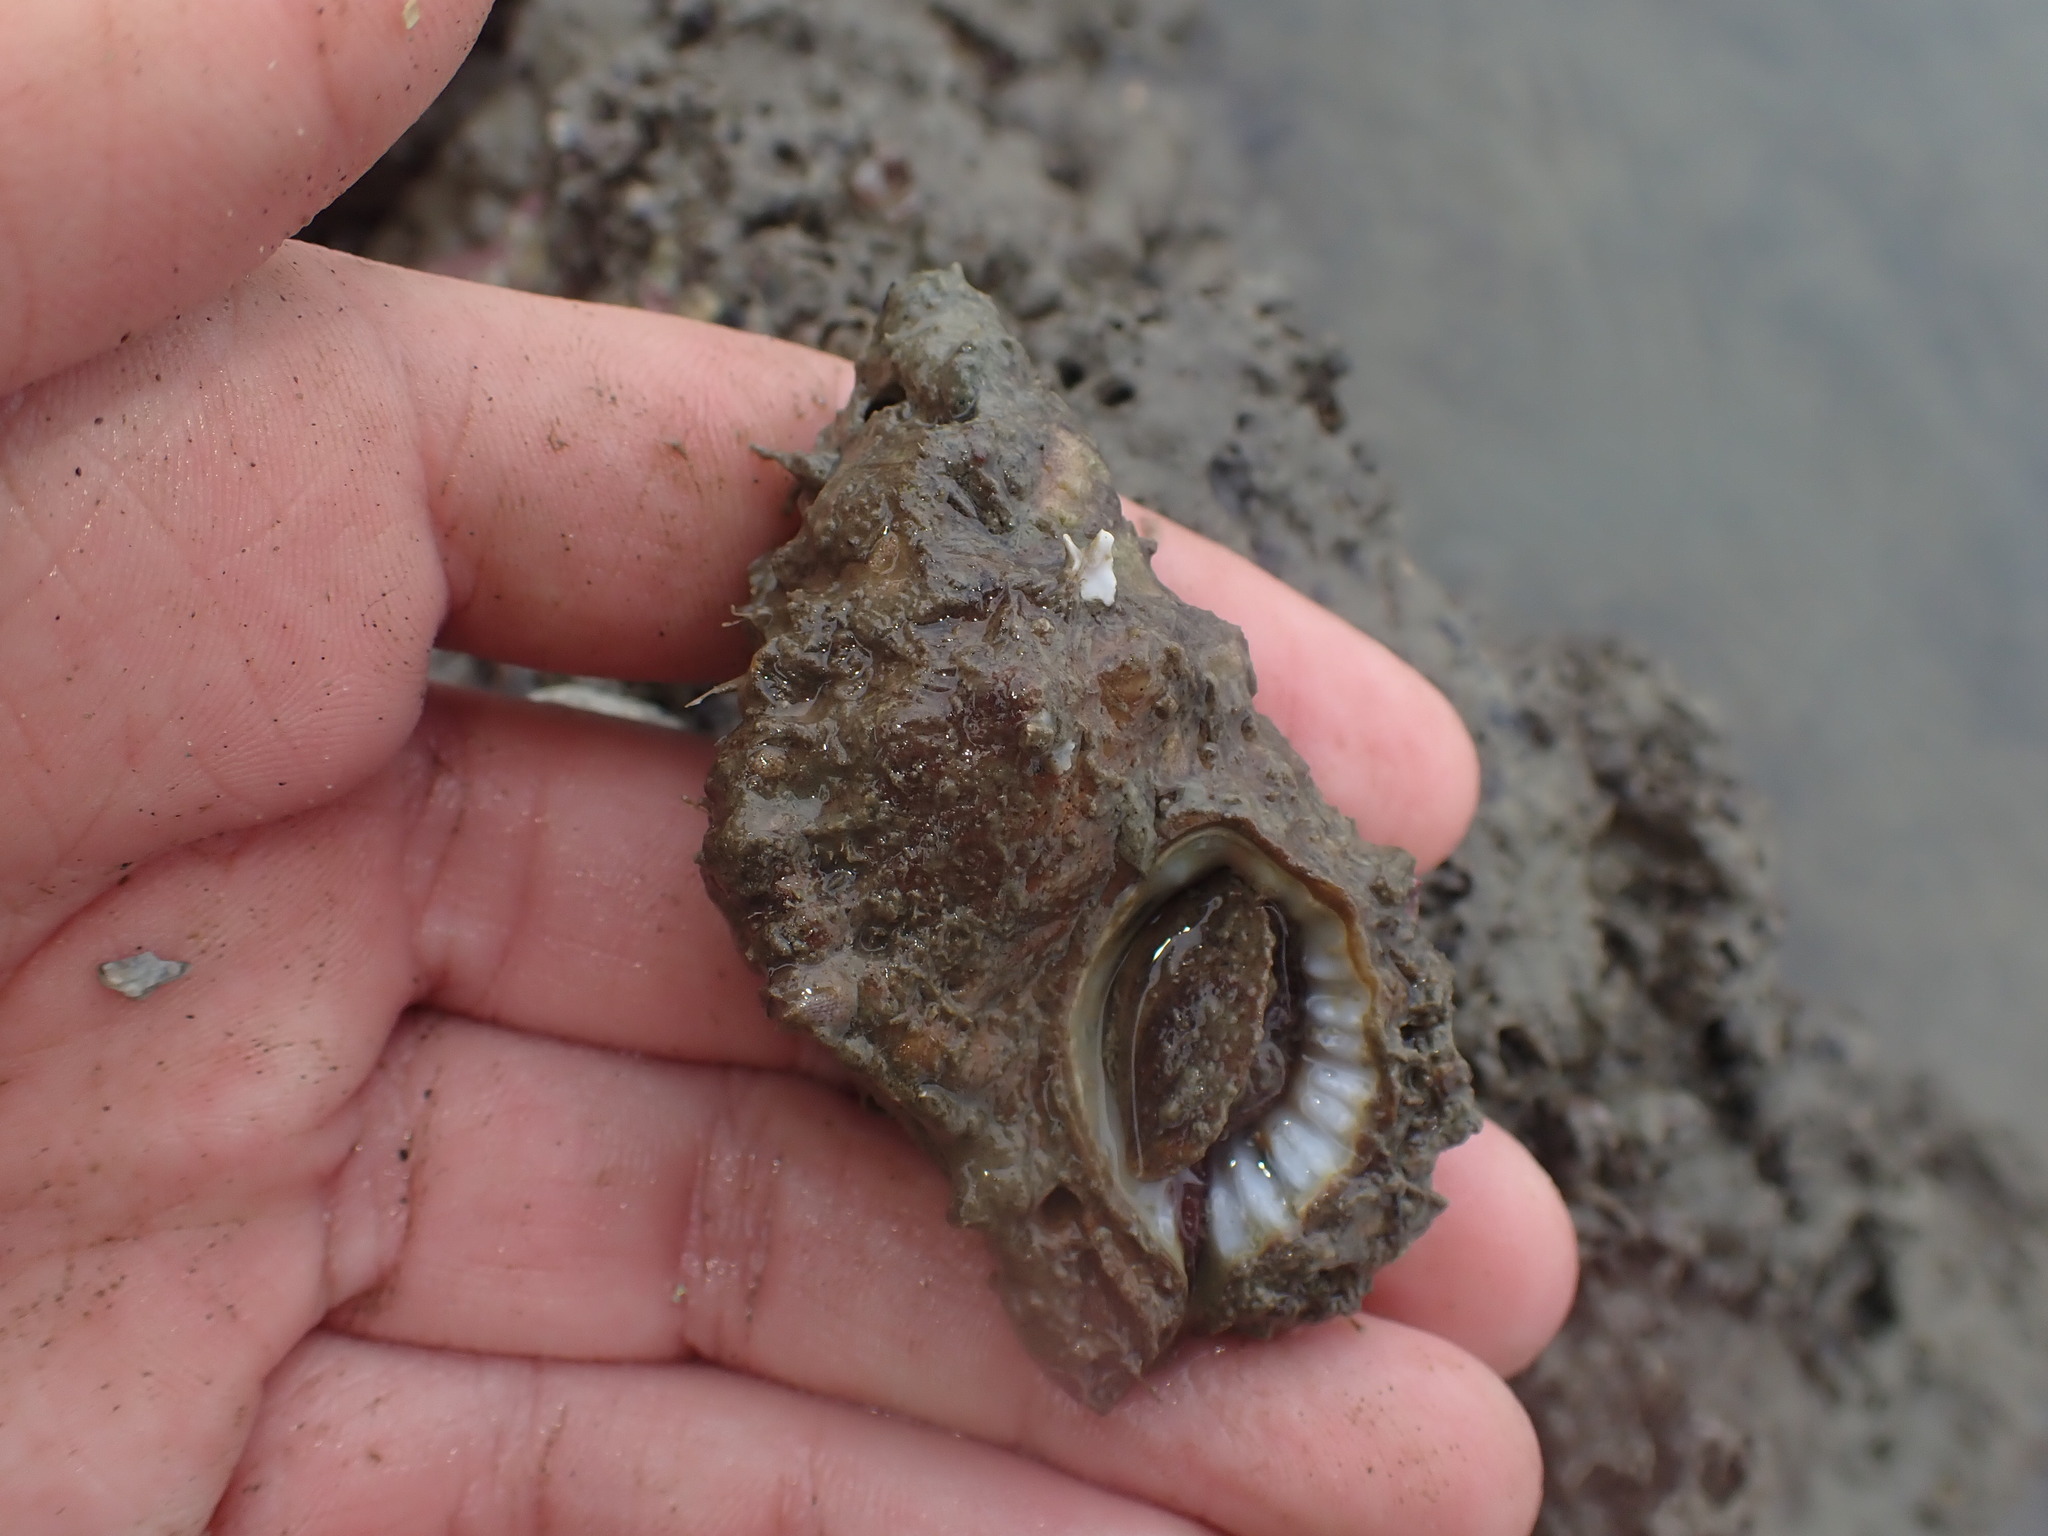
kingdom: Animalia
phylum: Mollusca
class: Gastropoda
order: Littorinimorpha
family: Cymatiidae
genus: Cabestana
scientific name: Cabestana spengleri
